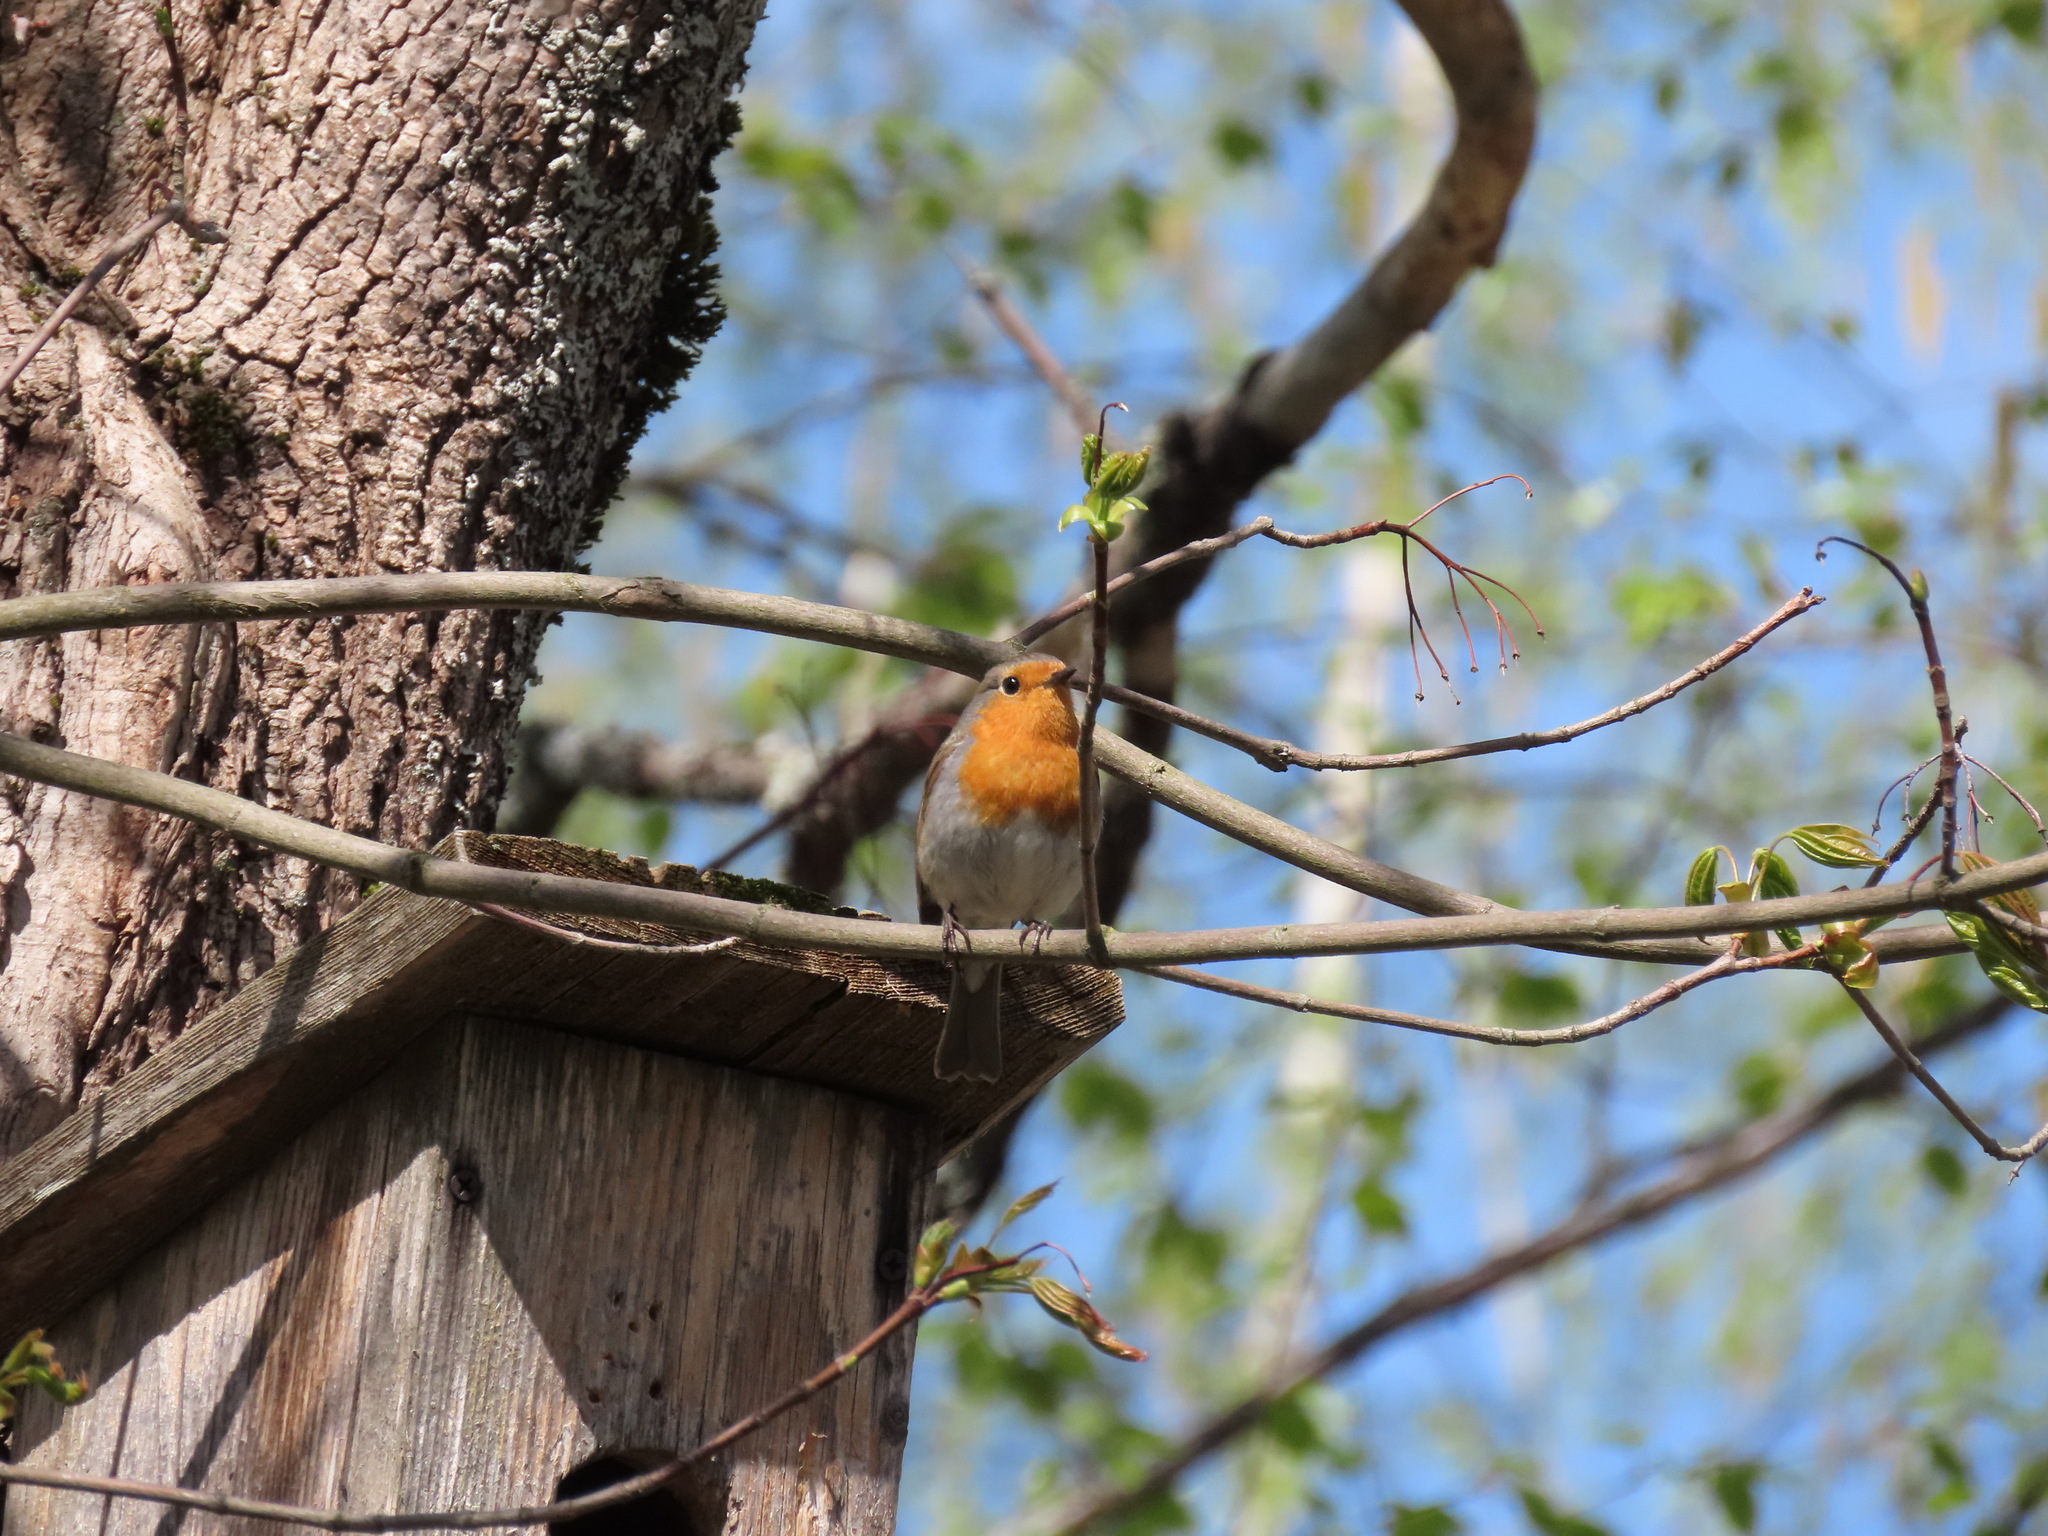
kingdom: Animalia
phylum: Chordata
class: Aves
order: Passeriformes
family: Muscicapidae
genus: Erithacus
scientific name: Erithacus rubecula
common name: European robin
